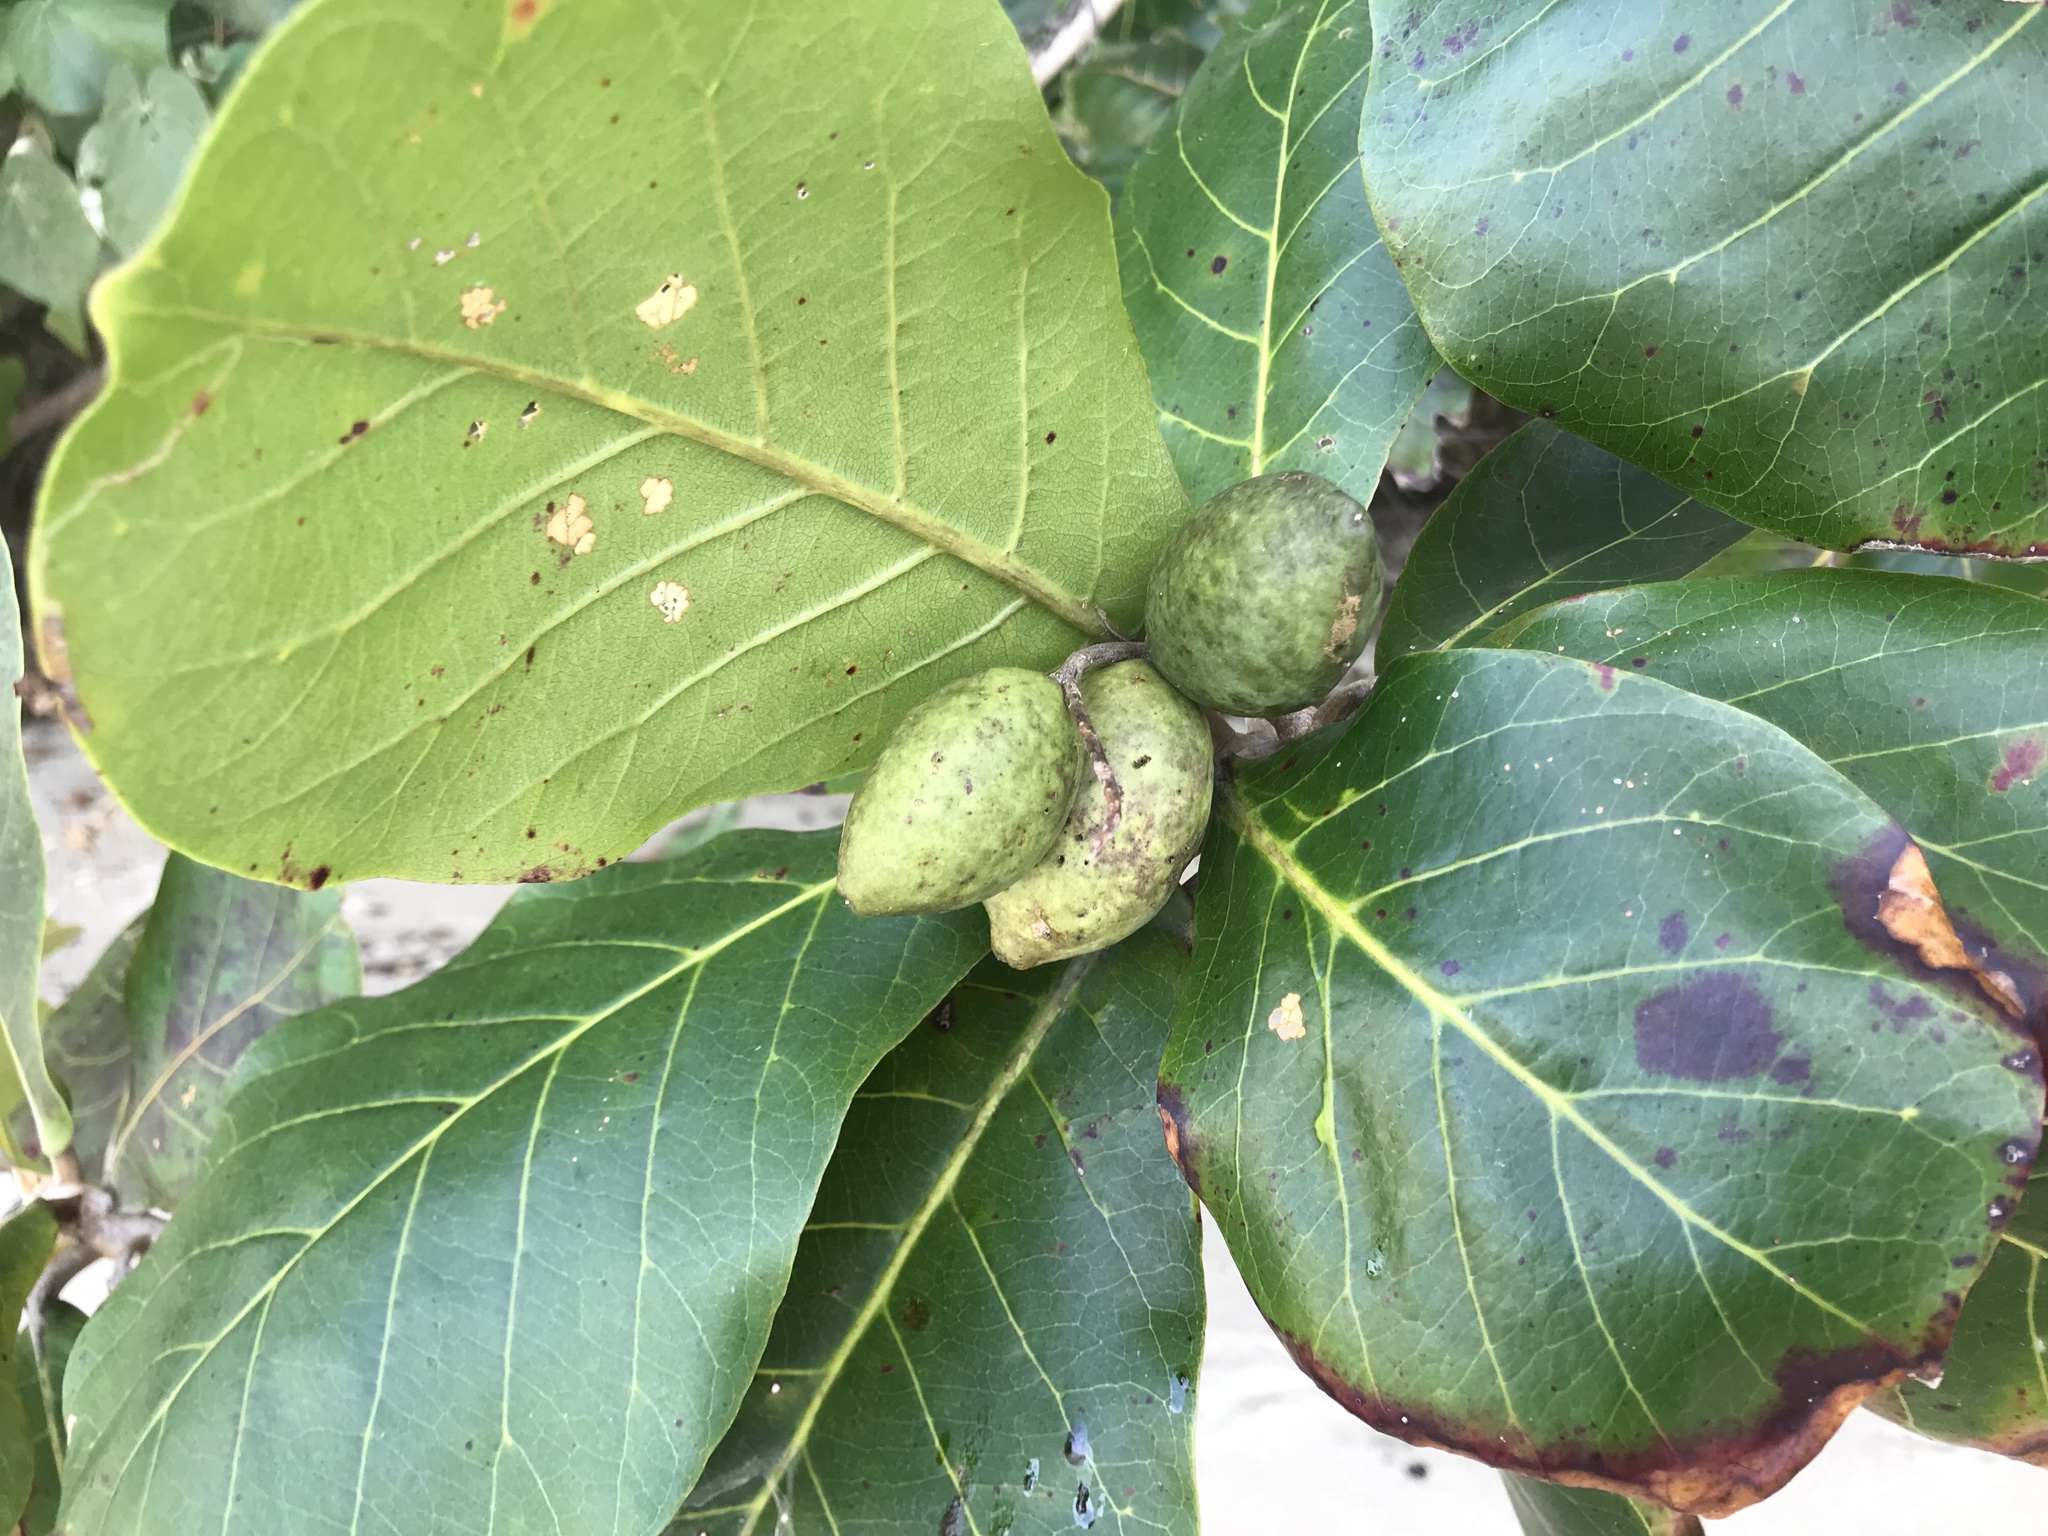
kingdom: Plantae
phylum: Tracheophyta
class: Magnoliopsida
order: Myrtales
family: Combretaceae
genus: Terminalia
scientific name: Terminalia catappa
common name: Tropical almond
